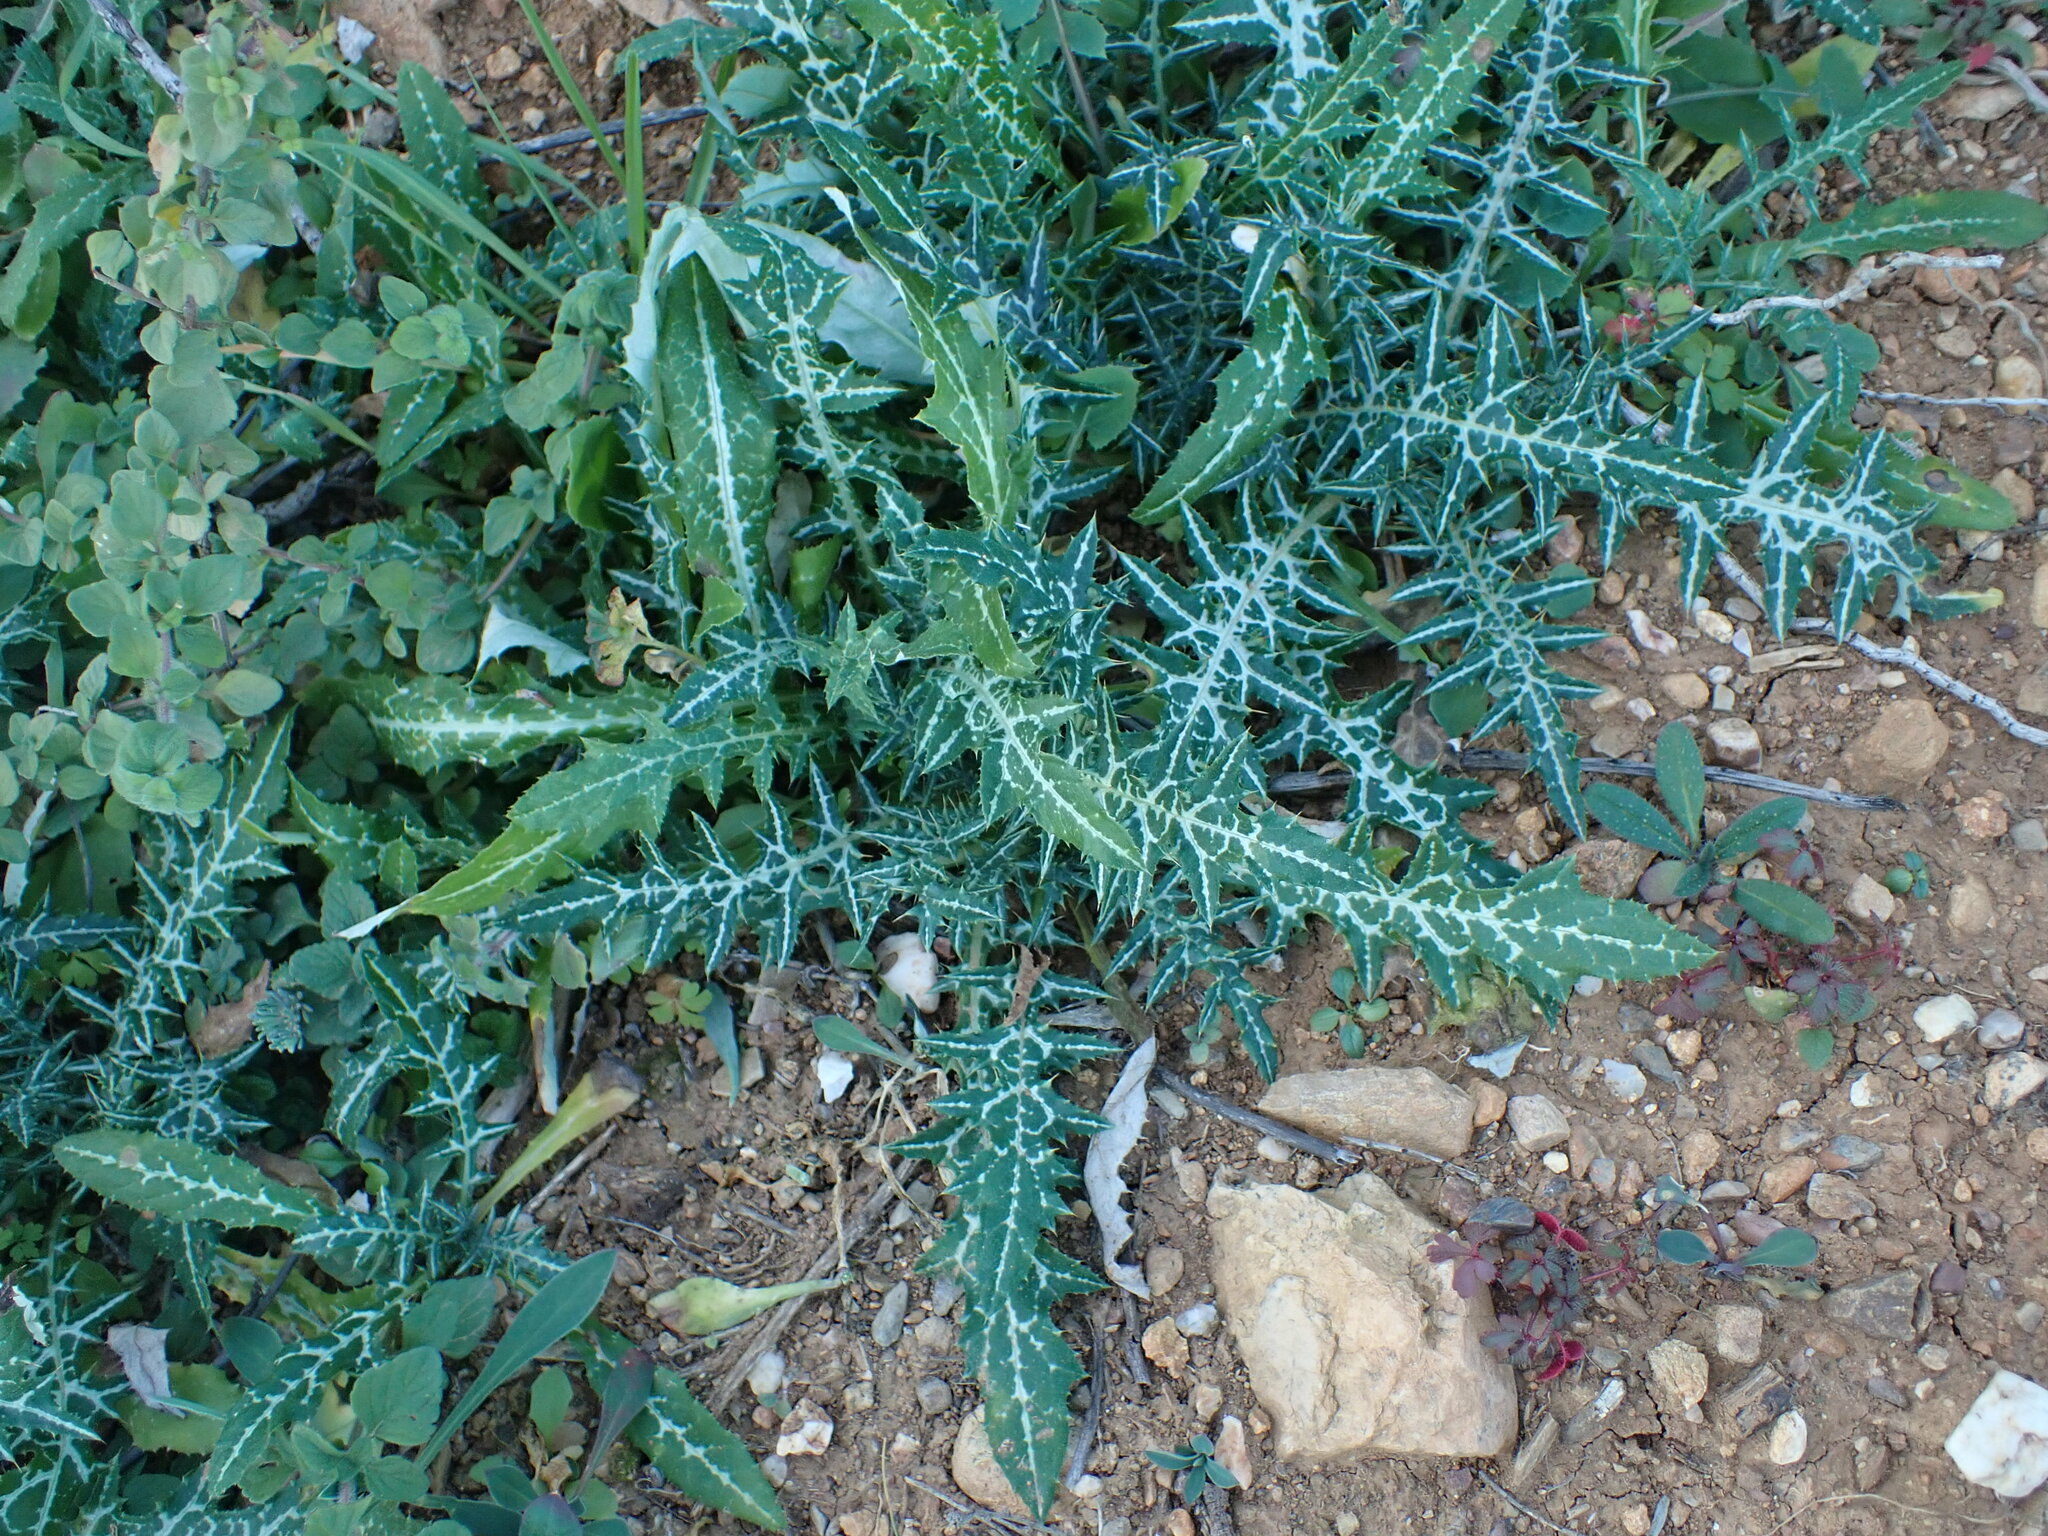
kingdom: Plantae
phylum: Tracheophyta
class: Magnoliopsida
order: Asterales
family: Asteraceae
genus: Galactites
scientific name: Galactites tomentosa
